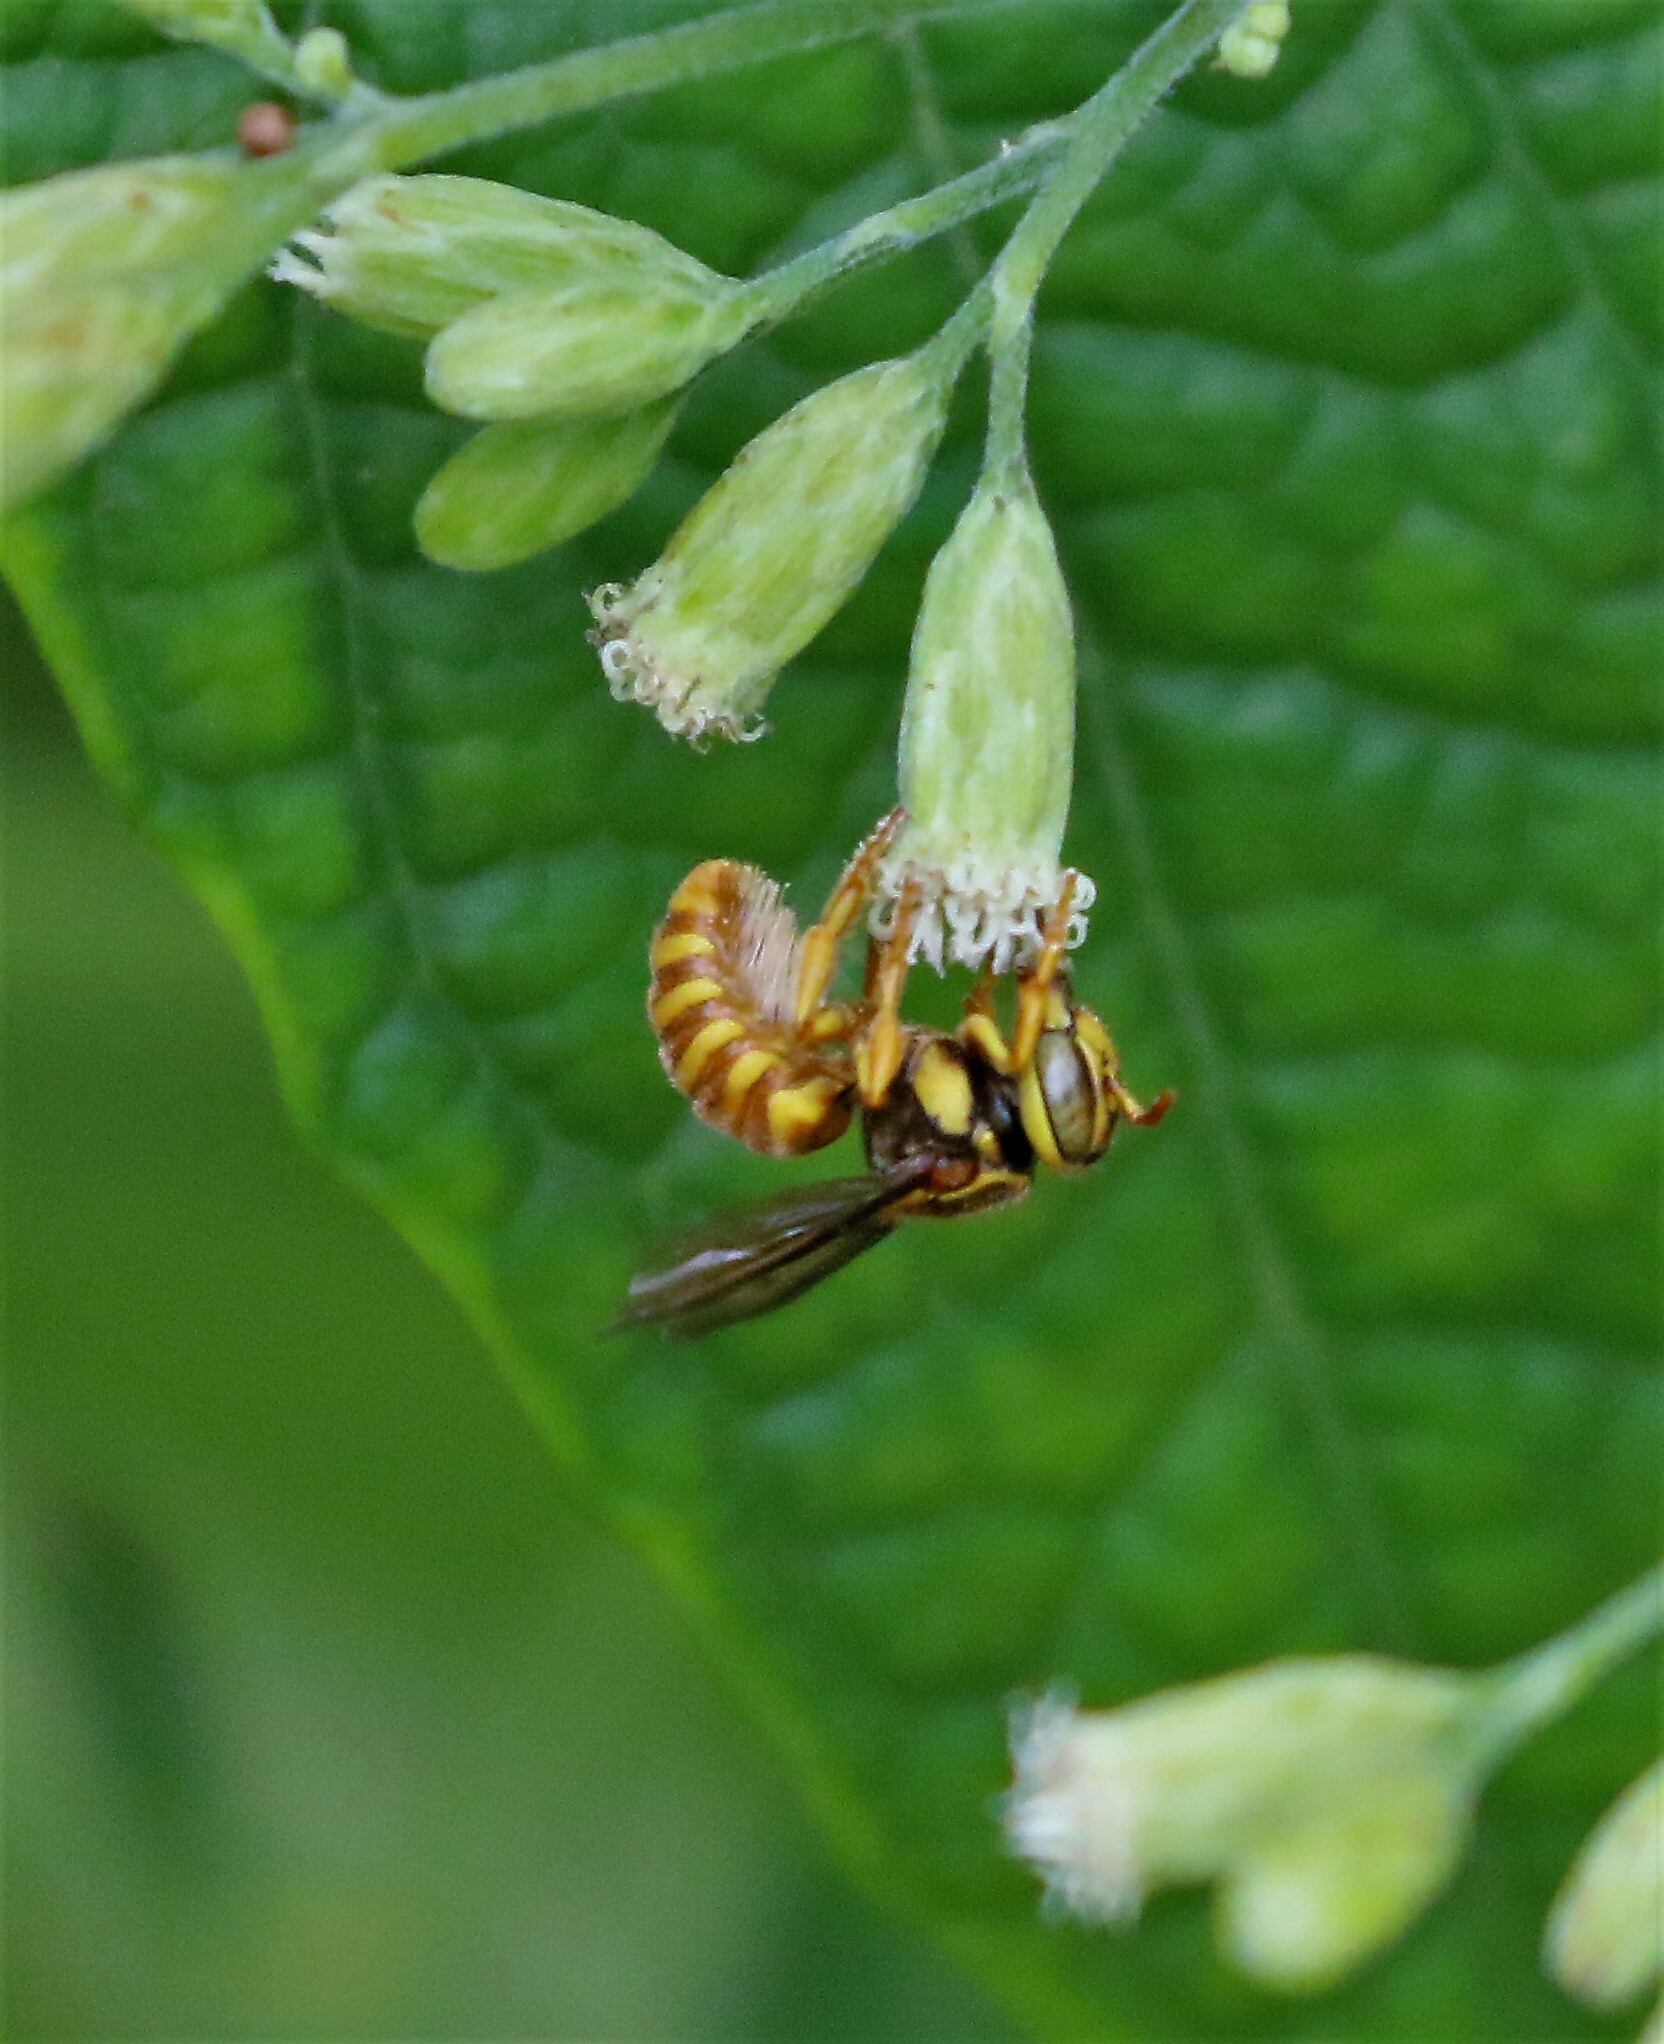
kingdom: Animalia
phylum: Arthropoda
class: Insecta
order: Hymenoptera
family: Megachilidae
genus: Hypanthidioides
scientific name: Hypanthidioides panamensis
